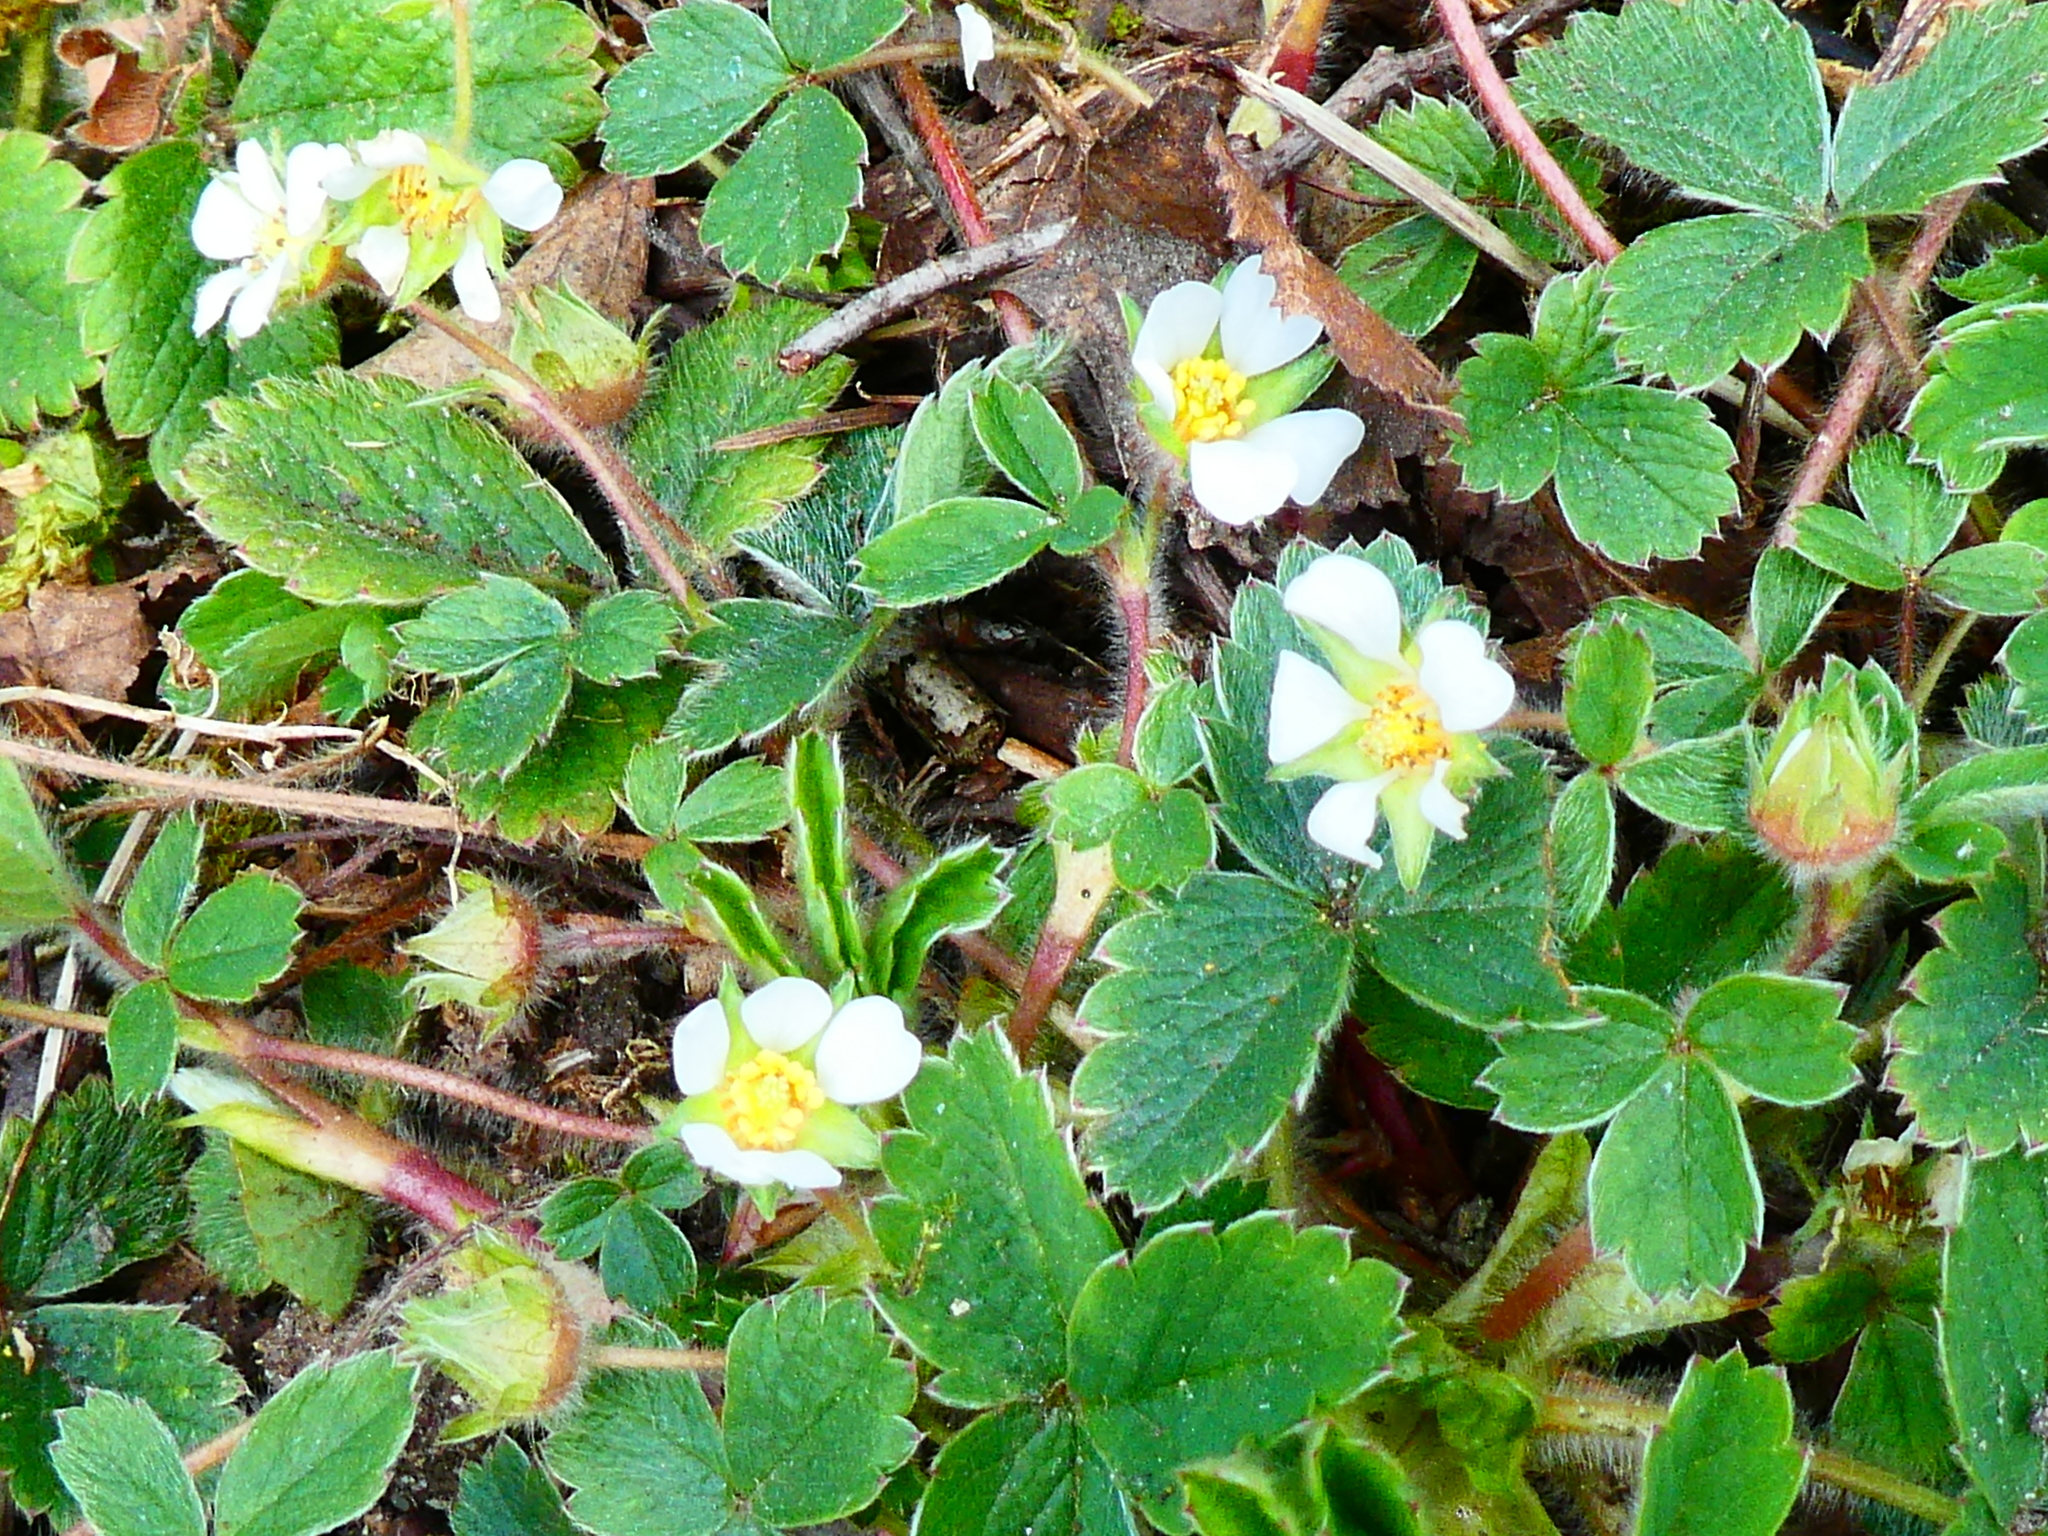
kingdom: Plantae
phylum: Tracheophyta
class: Magnoliopsida
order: Rosales
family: Rosaceae
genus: Potentilla
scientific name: Potentilla sterilis
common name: Barren strawberry
